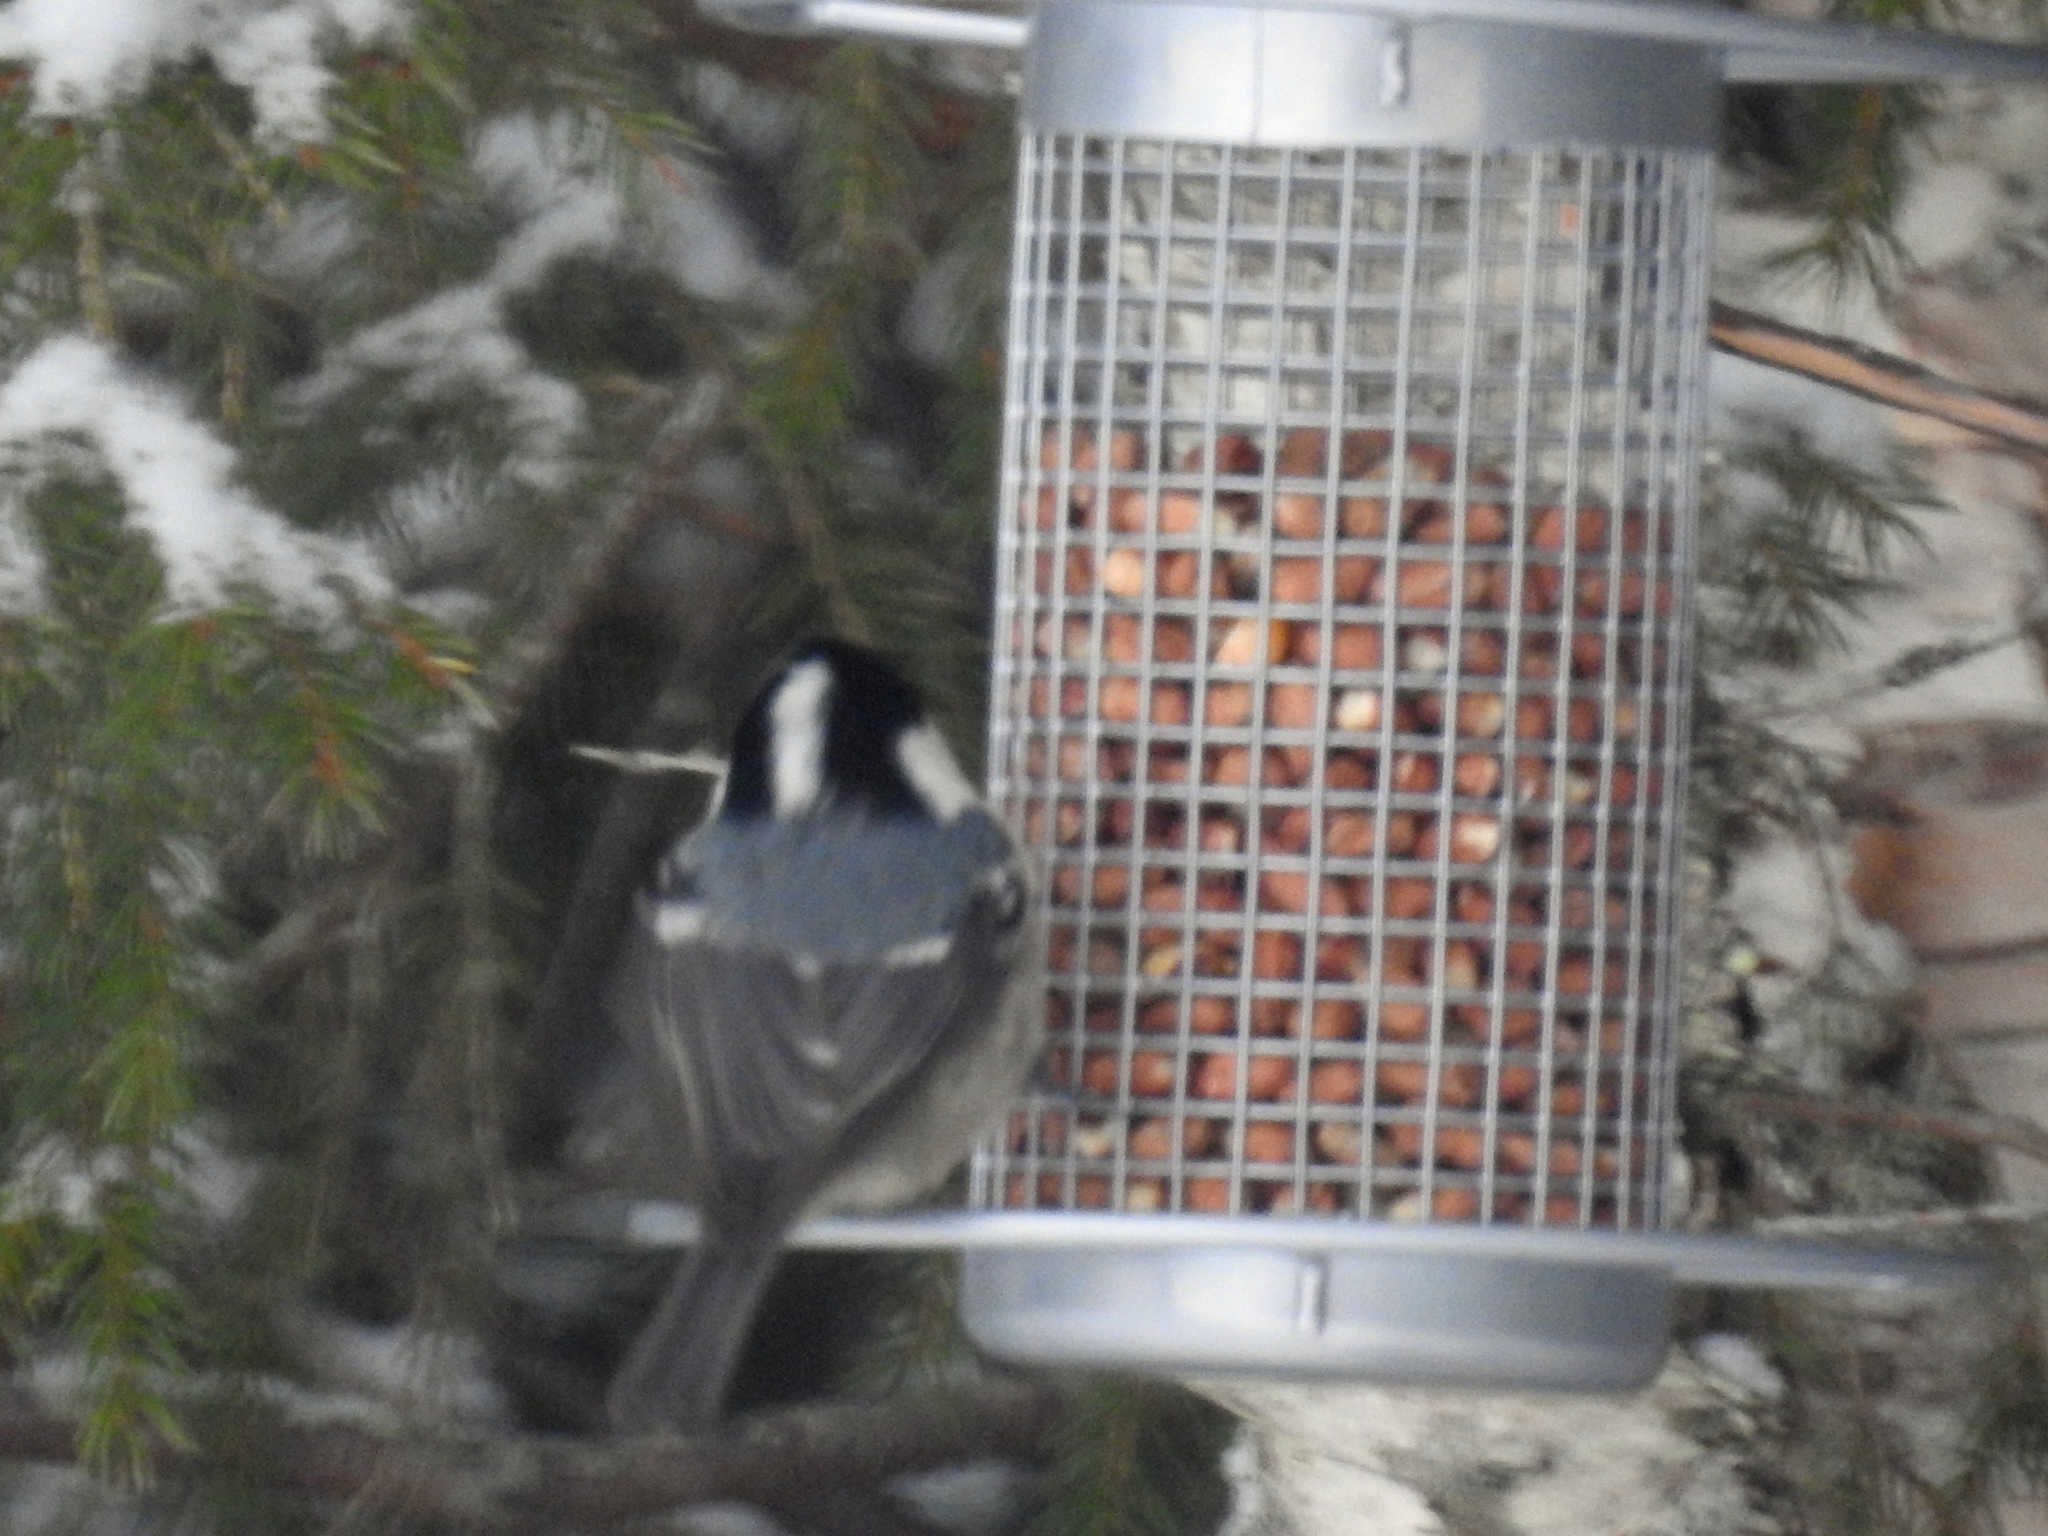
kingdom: Animalia
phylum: Chordata
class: Aves
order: Passeriformes
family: Paridae
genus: Periparus
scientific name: Periparus ater
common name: Coal tit
